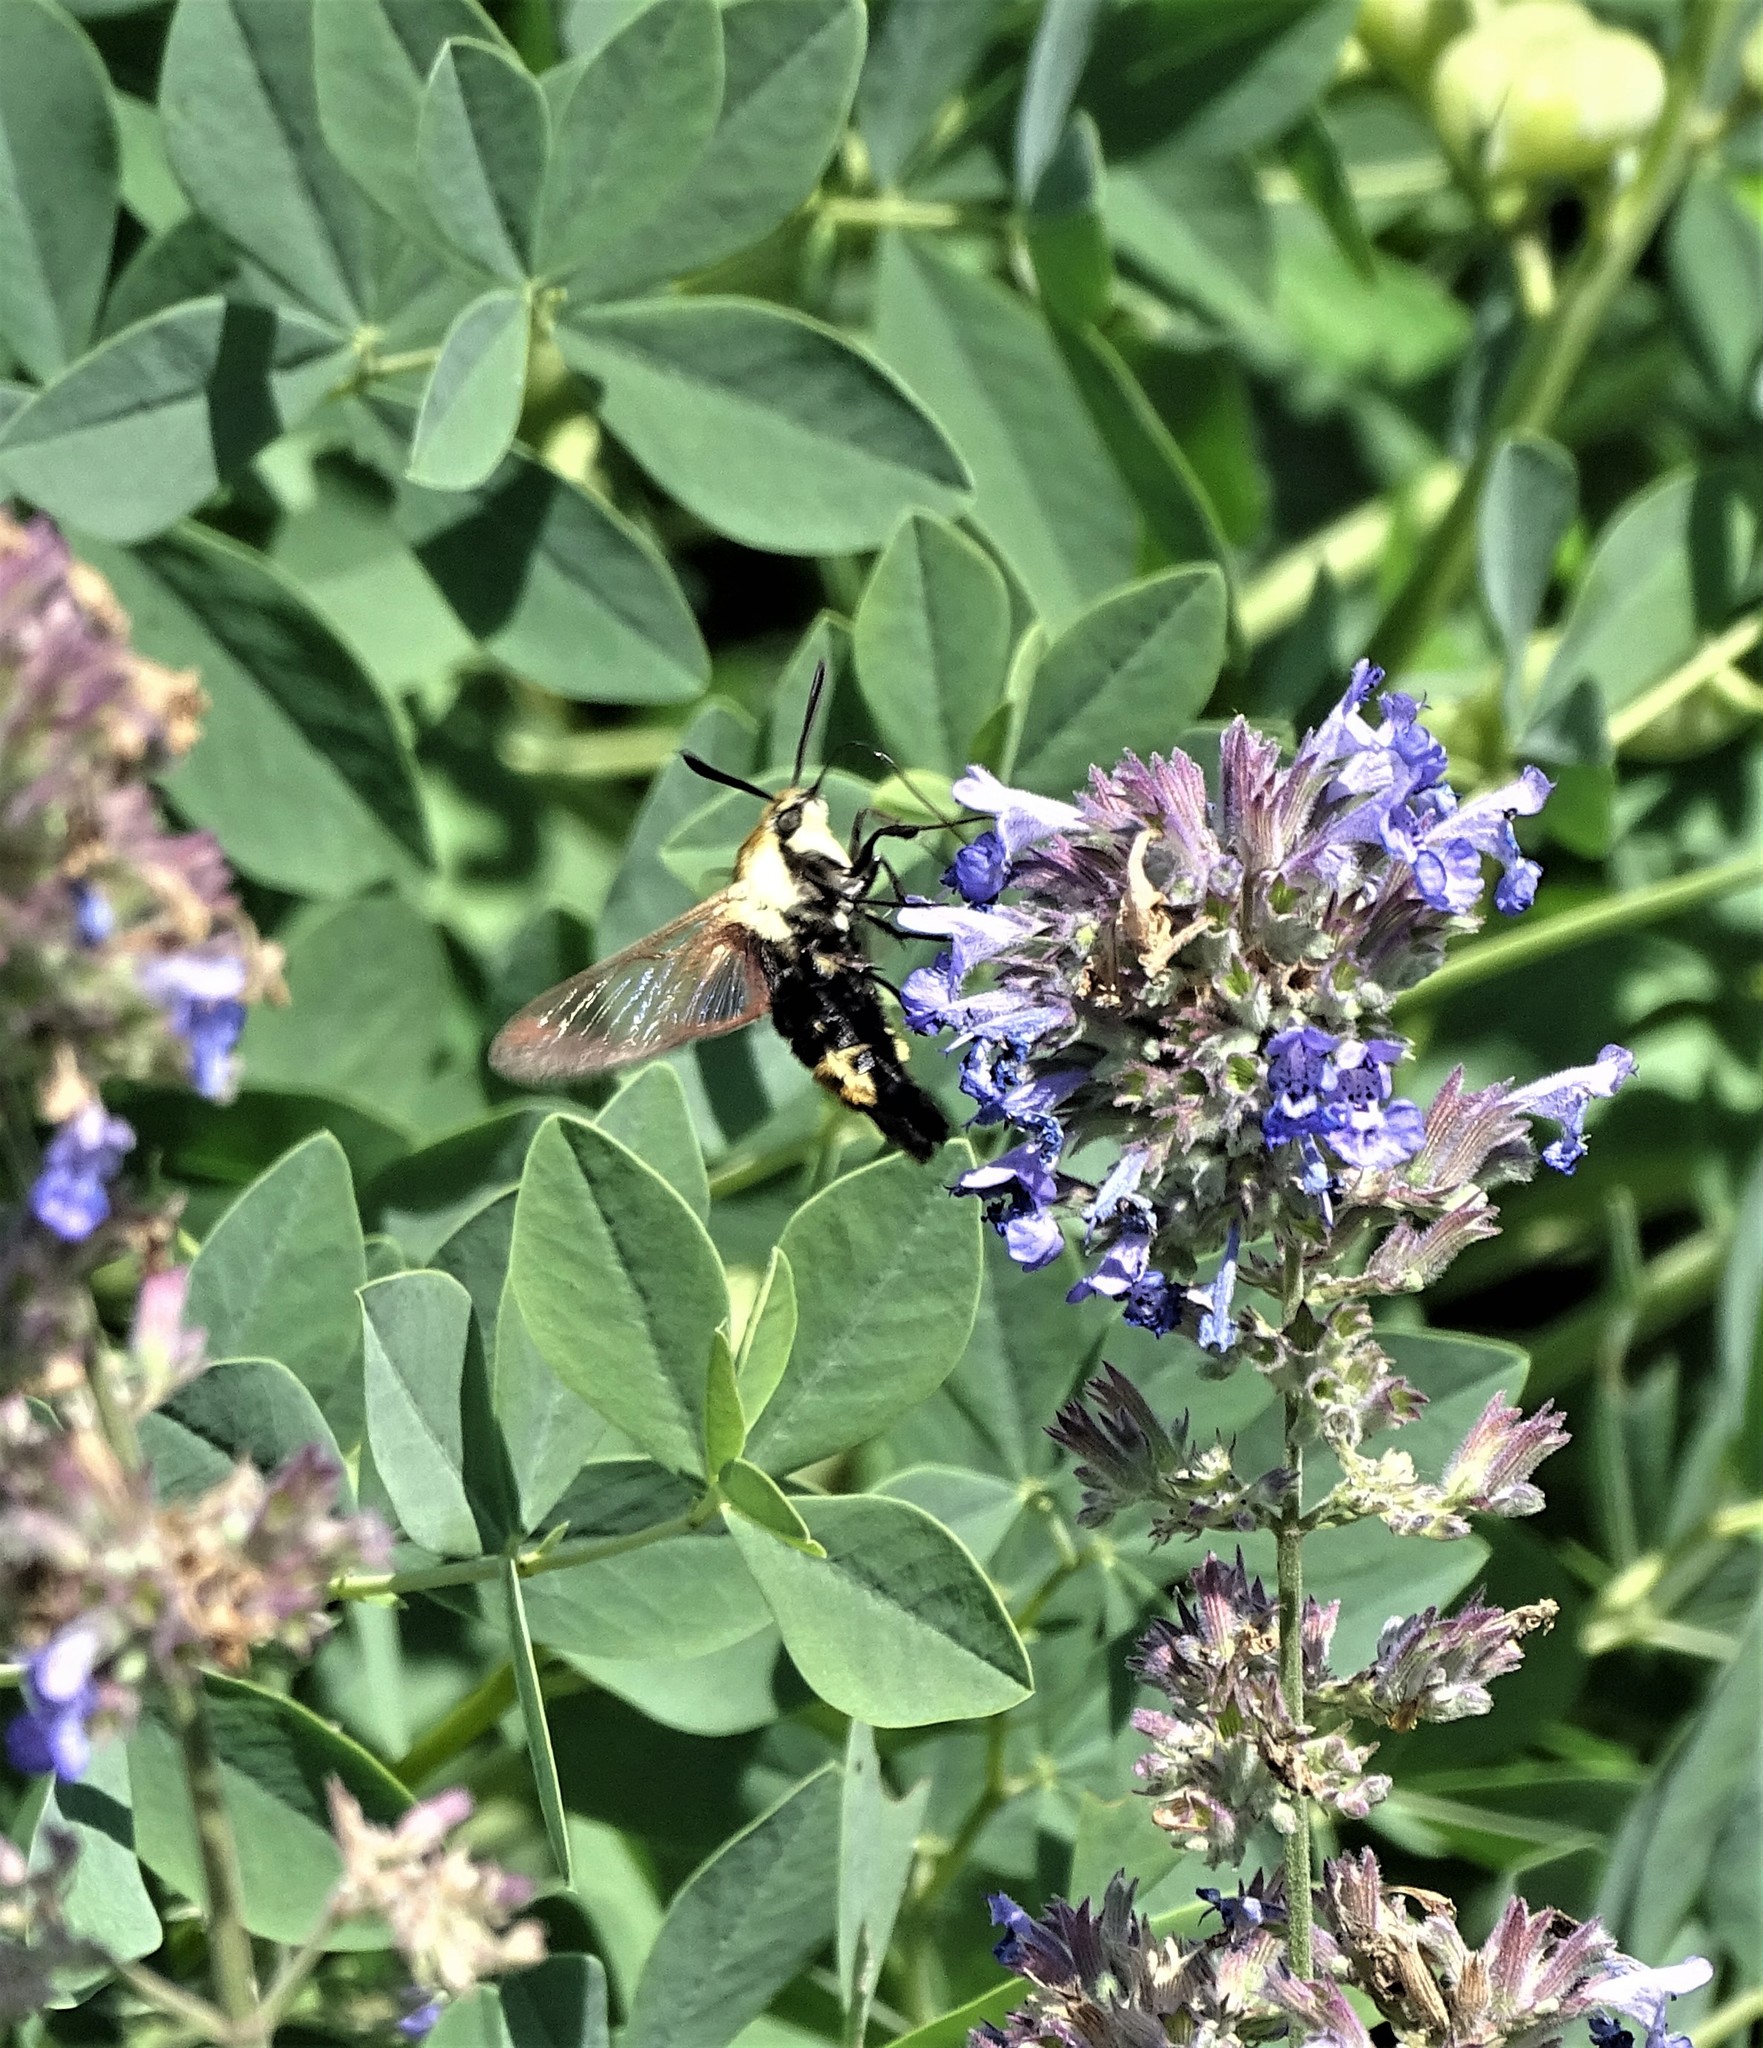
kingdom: Animalia
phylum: Arthropoda
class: Insecta
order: Lepidoptera
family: Sphingidae
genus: Hemaris
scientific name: Hemaris diffinis
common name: Bumblebee moth
